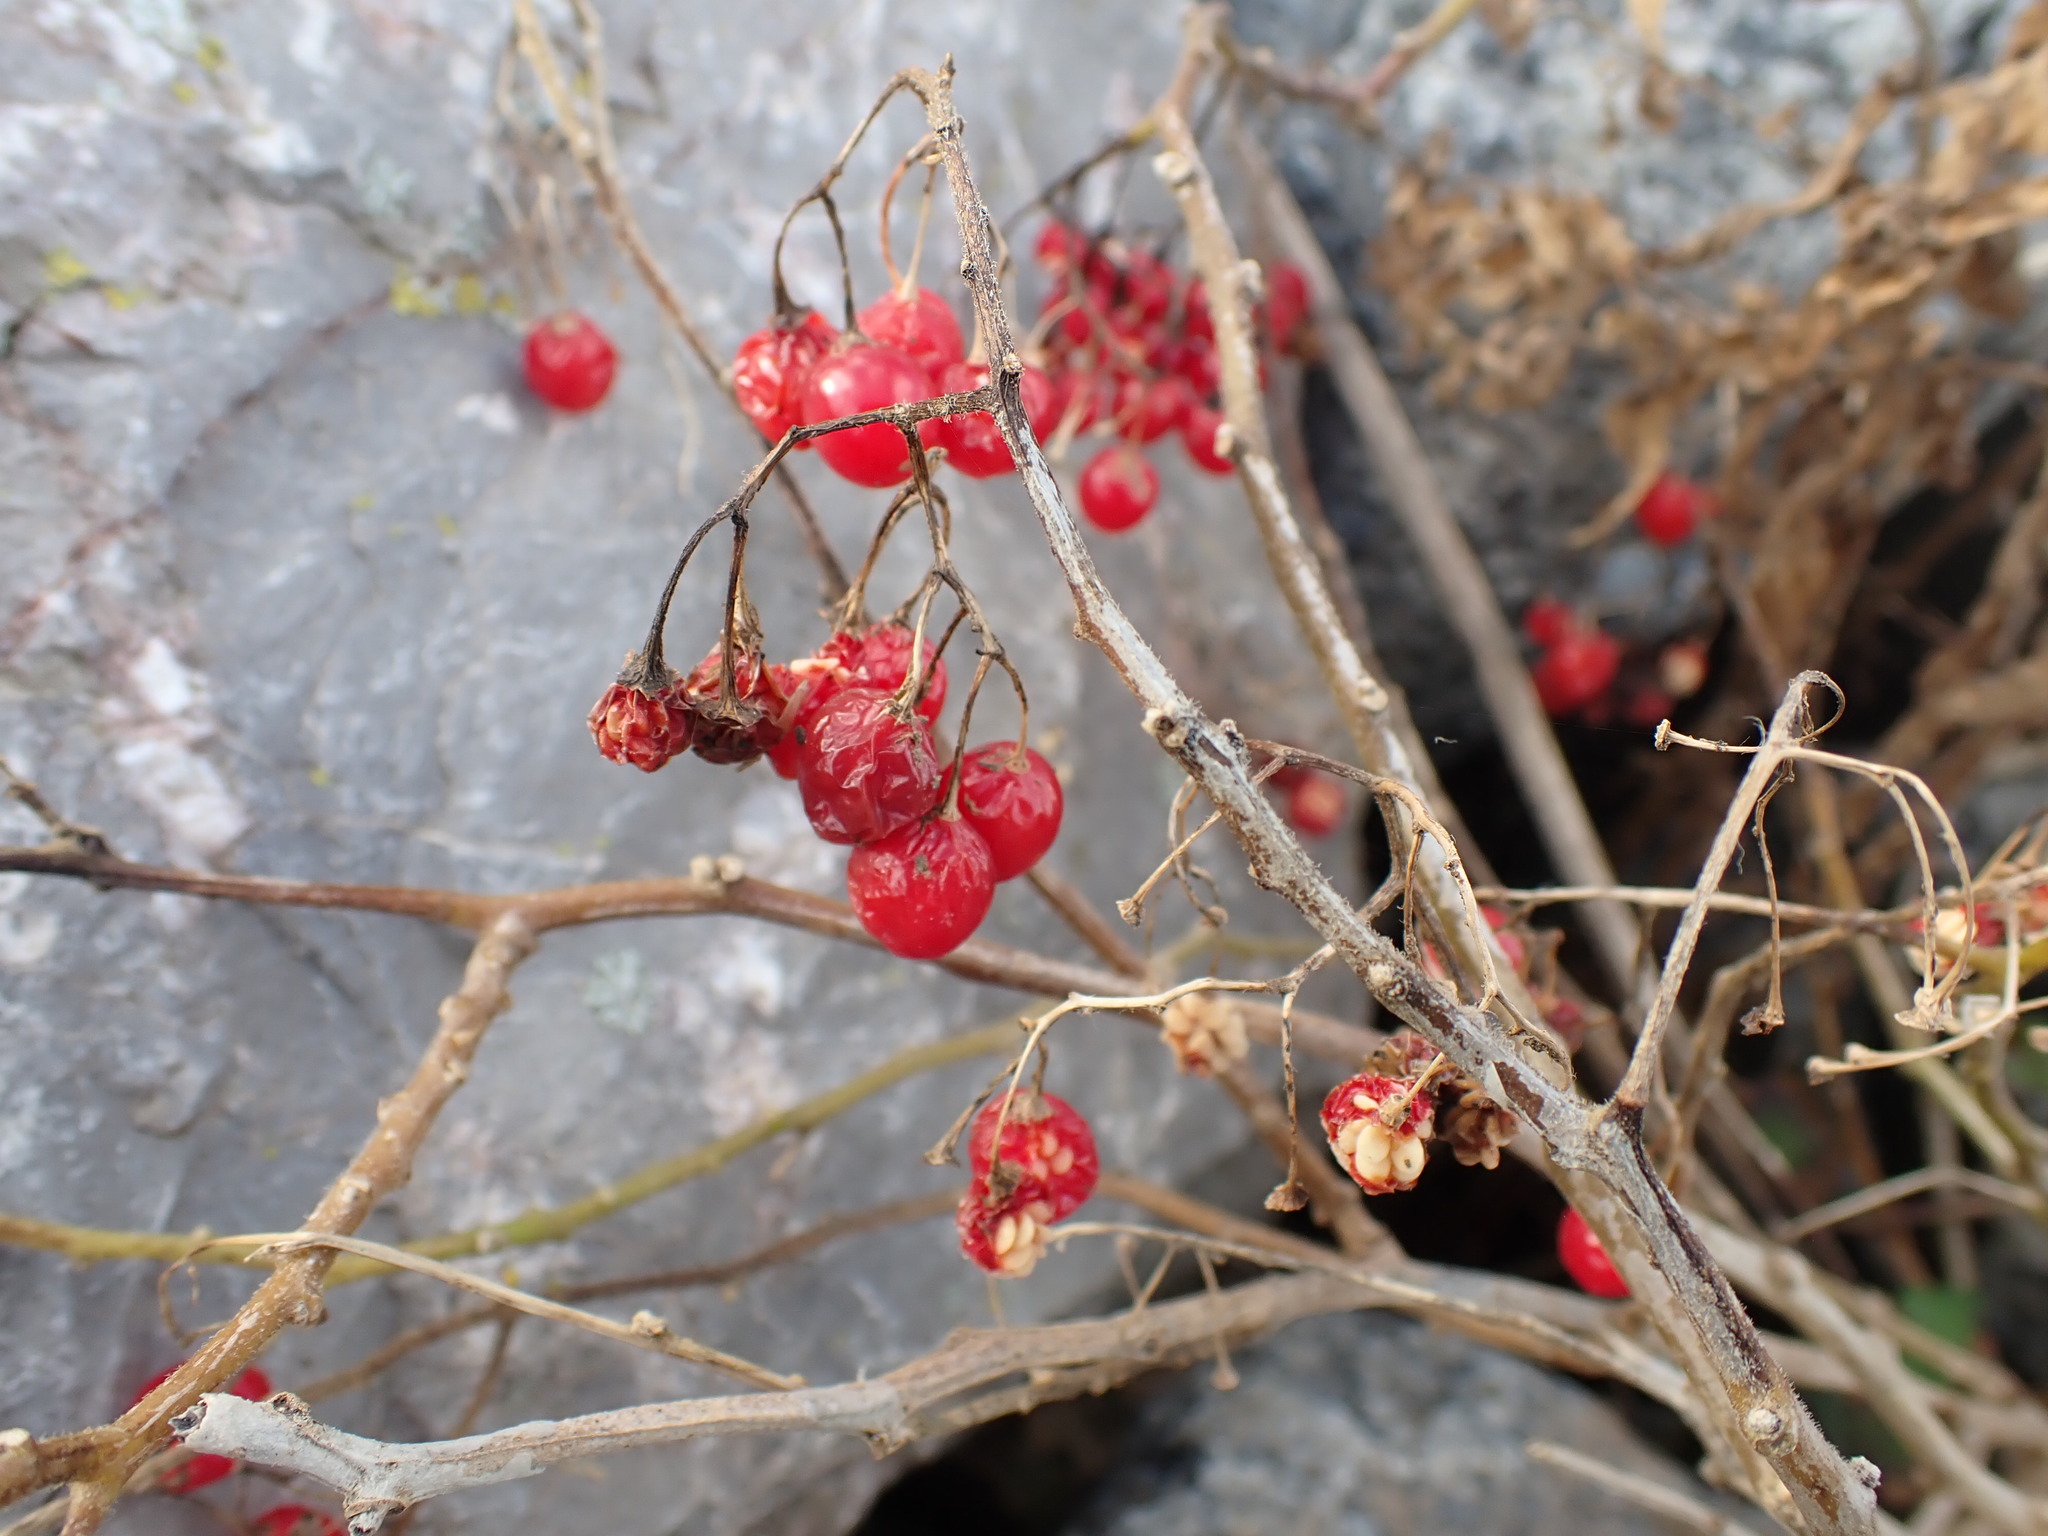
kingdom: Plantae
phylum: Tracheophyta
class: Magnoliopsida
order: Solanales
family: Solanaceae
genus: Solanum
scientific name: Solanum dulcamara
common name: Climbing nightshade
